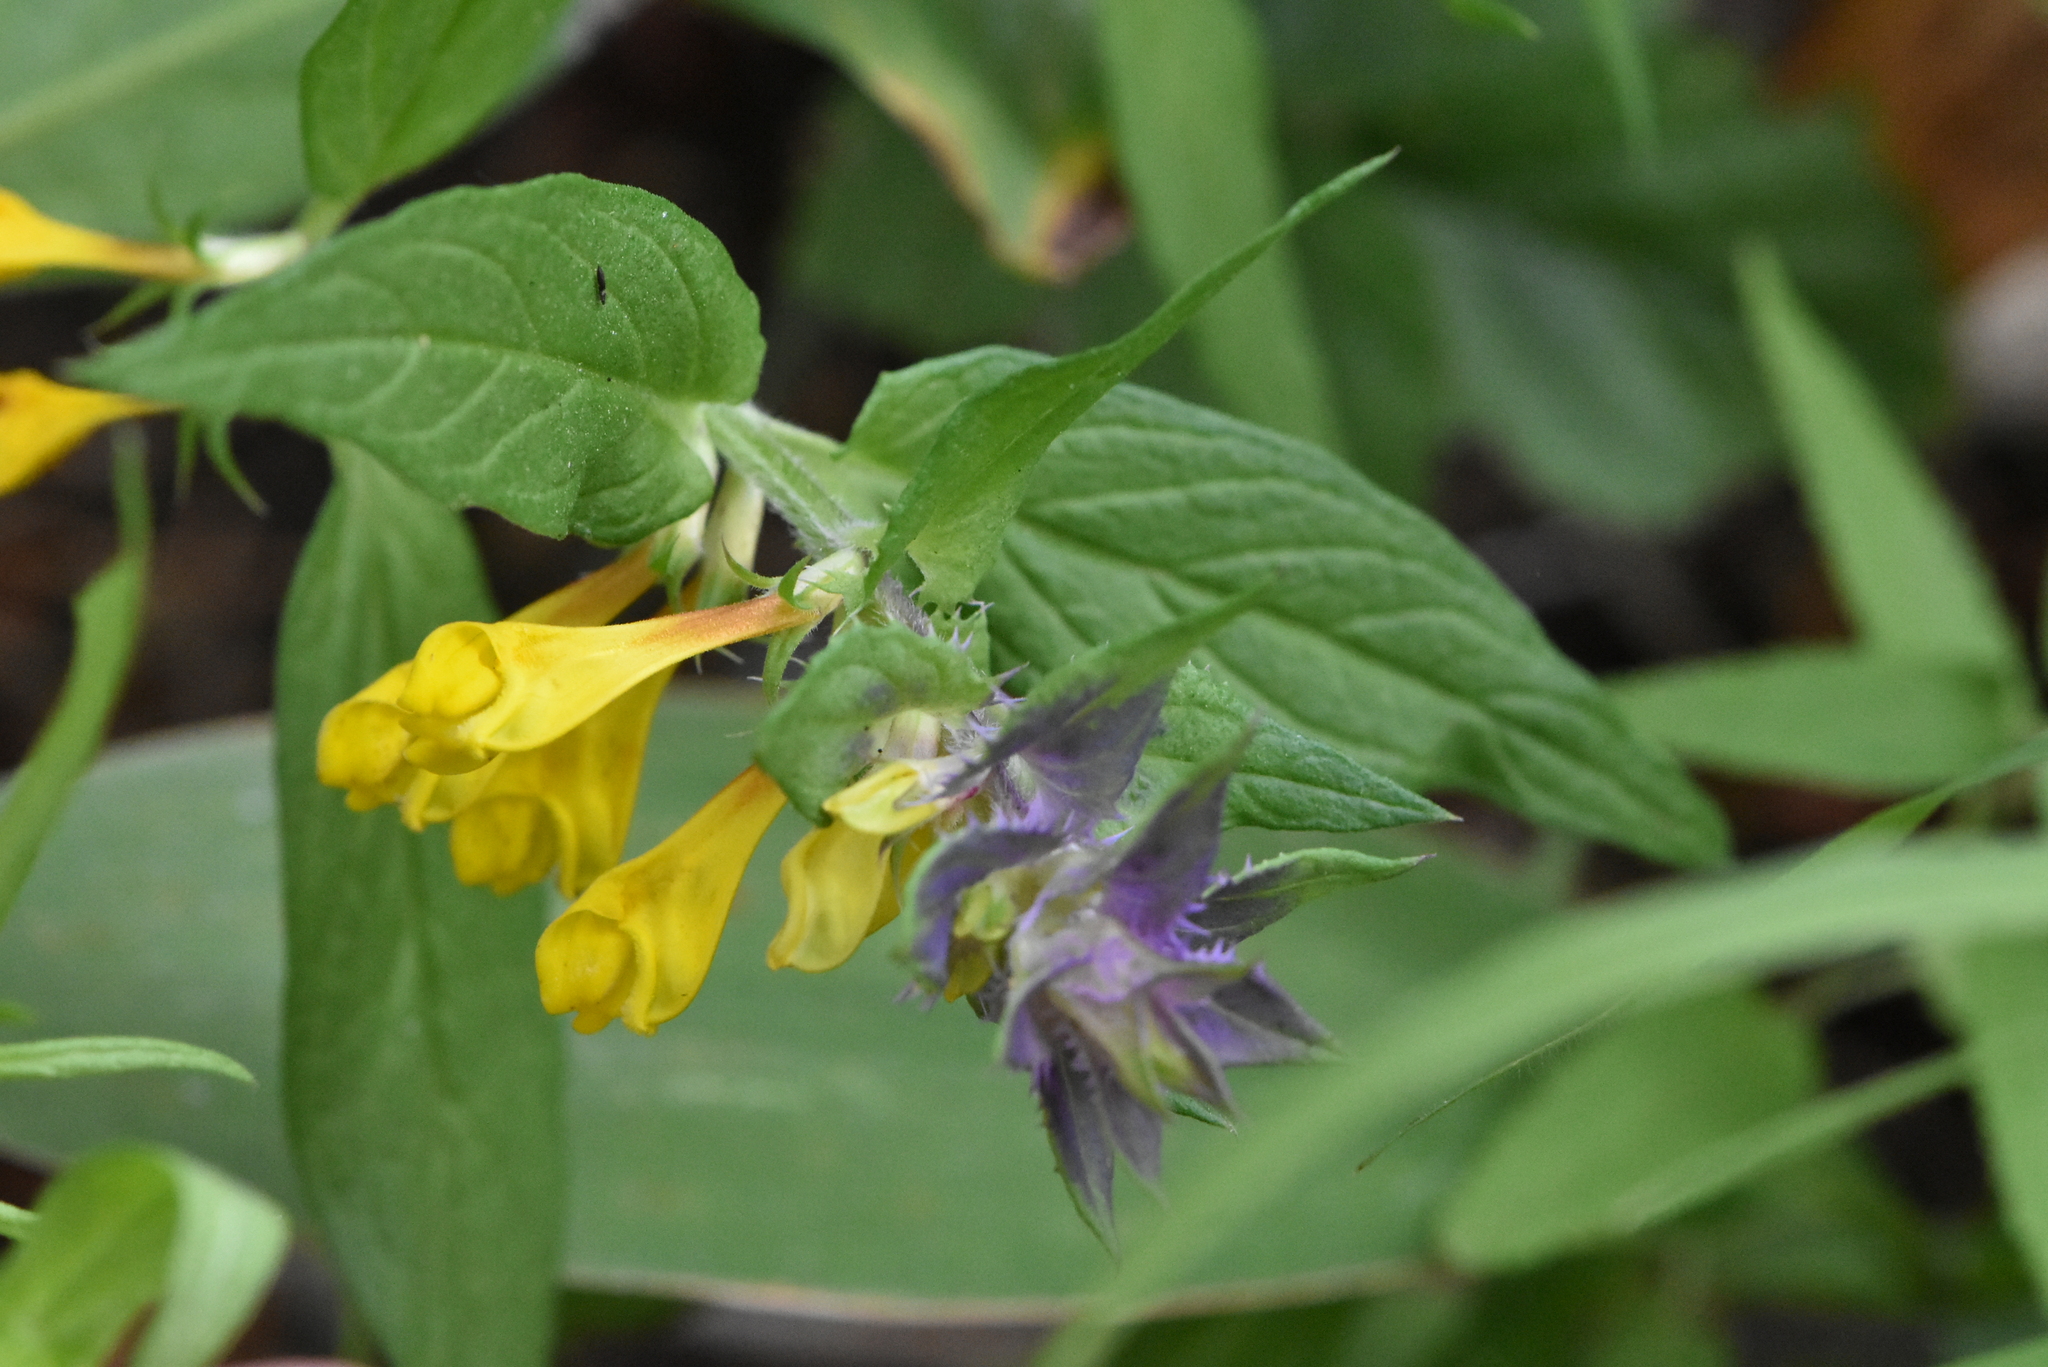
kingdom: Plantae
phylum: Tracheophyta
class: Magnoliopsida
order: Lamiales
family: Orobanchaceae
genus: Melampyrum
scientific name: Melampyrum nemorosum
